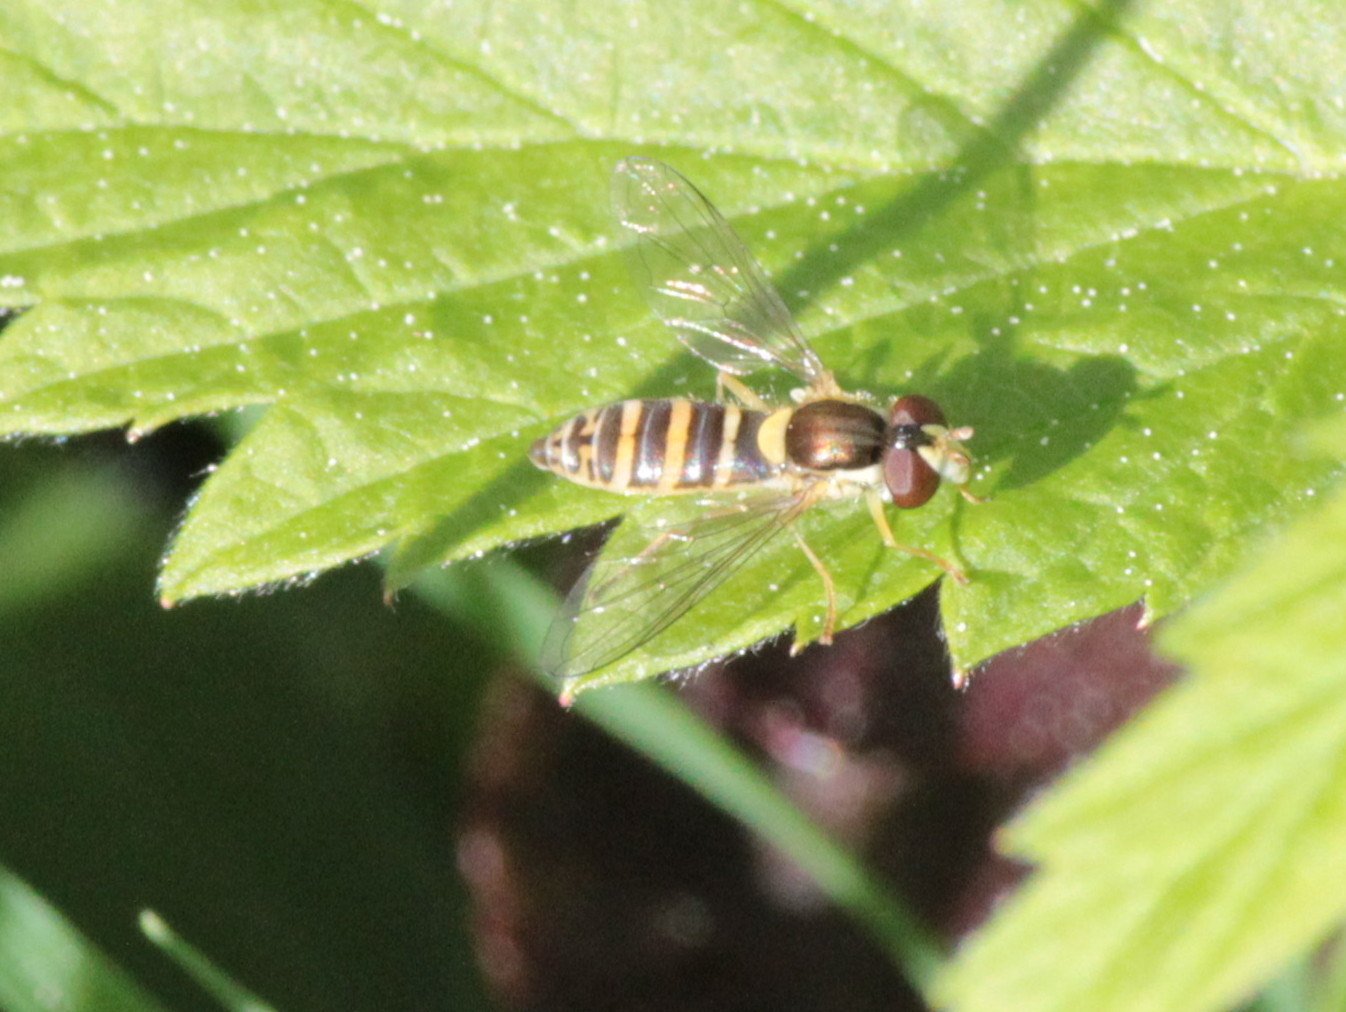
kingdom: Animalia
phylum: Arthropoda
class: Insecta
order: Diptera
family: Syrphidae
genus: Sphaerophoria
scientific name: Sphaerophoria
